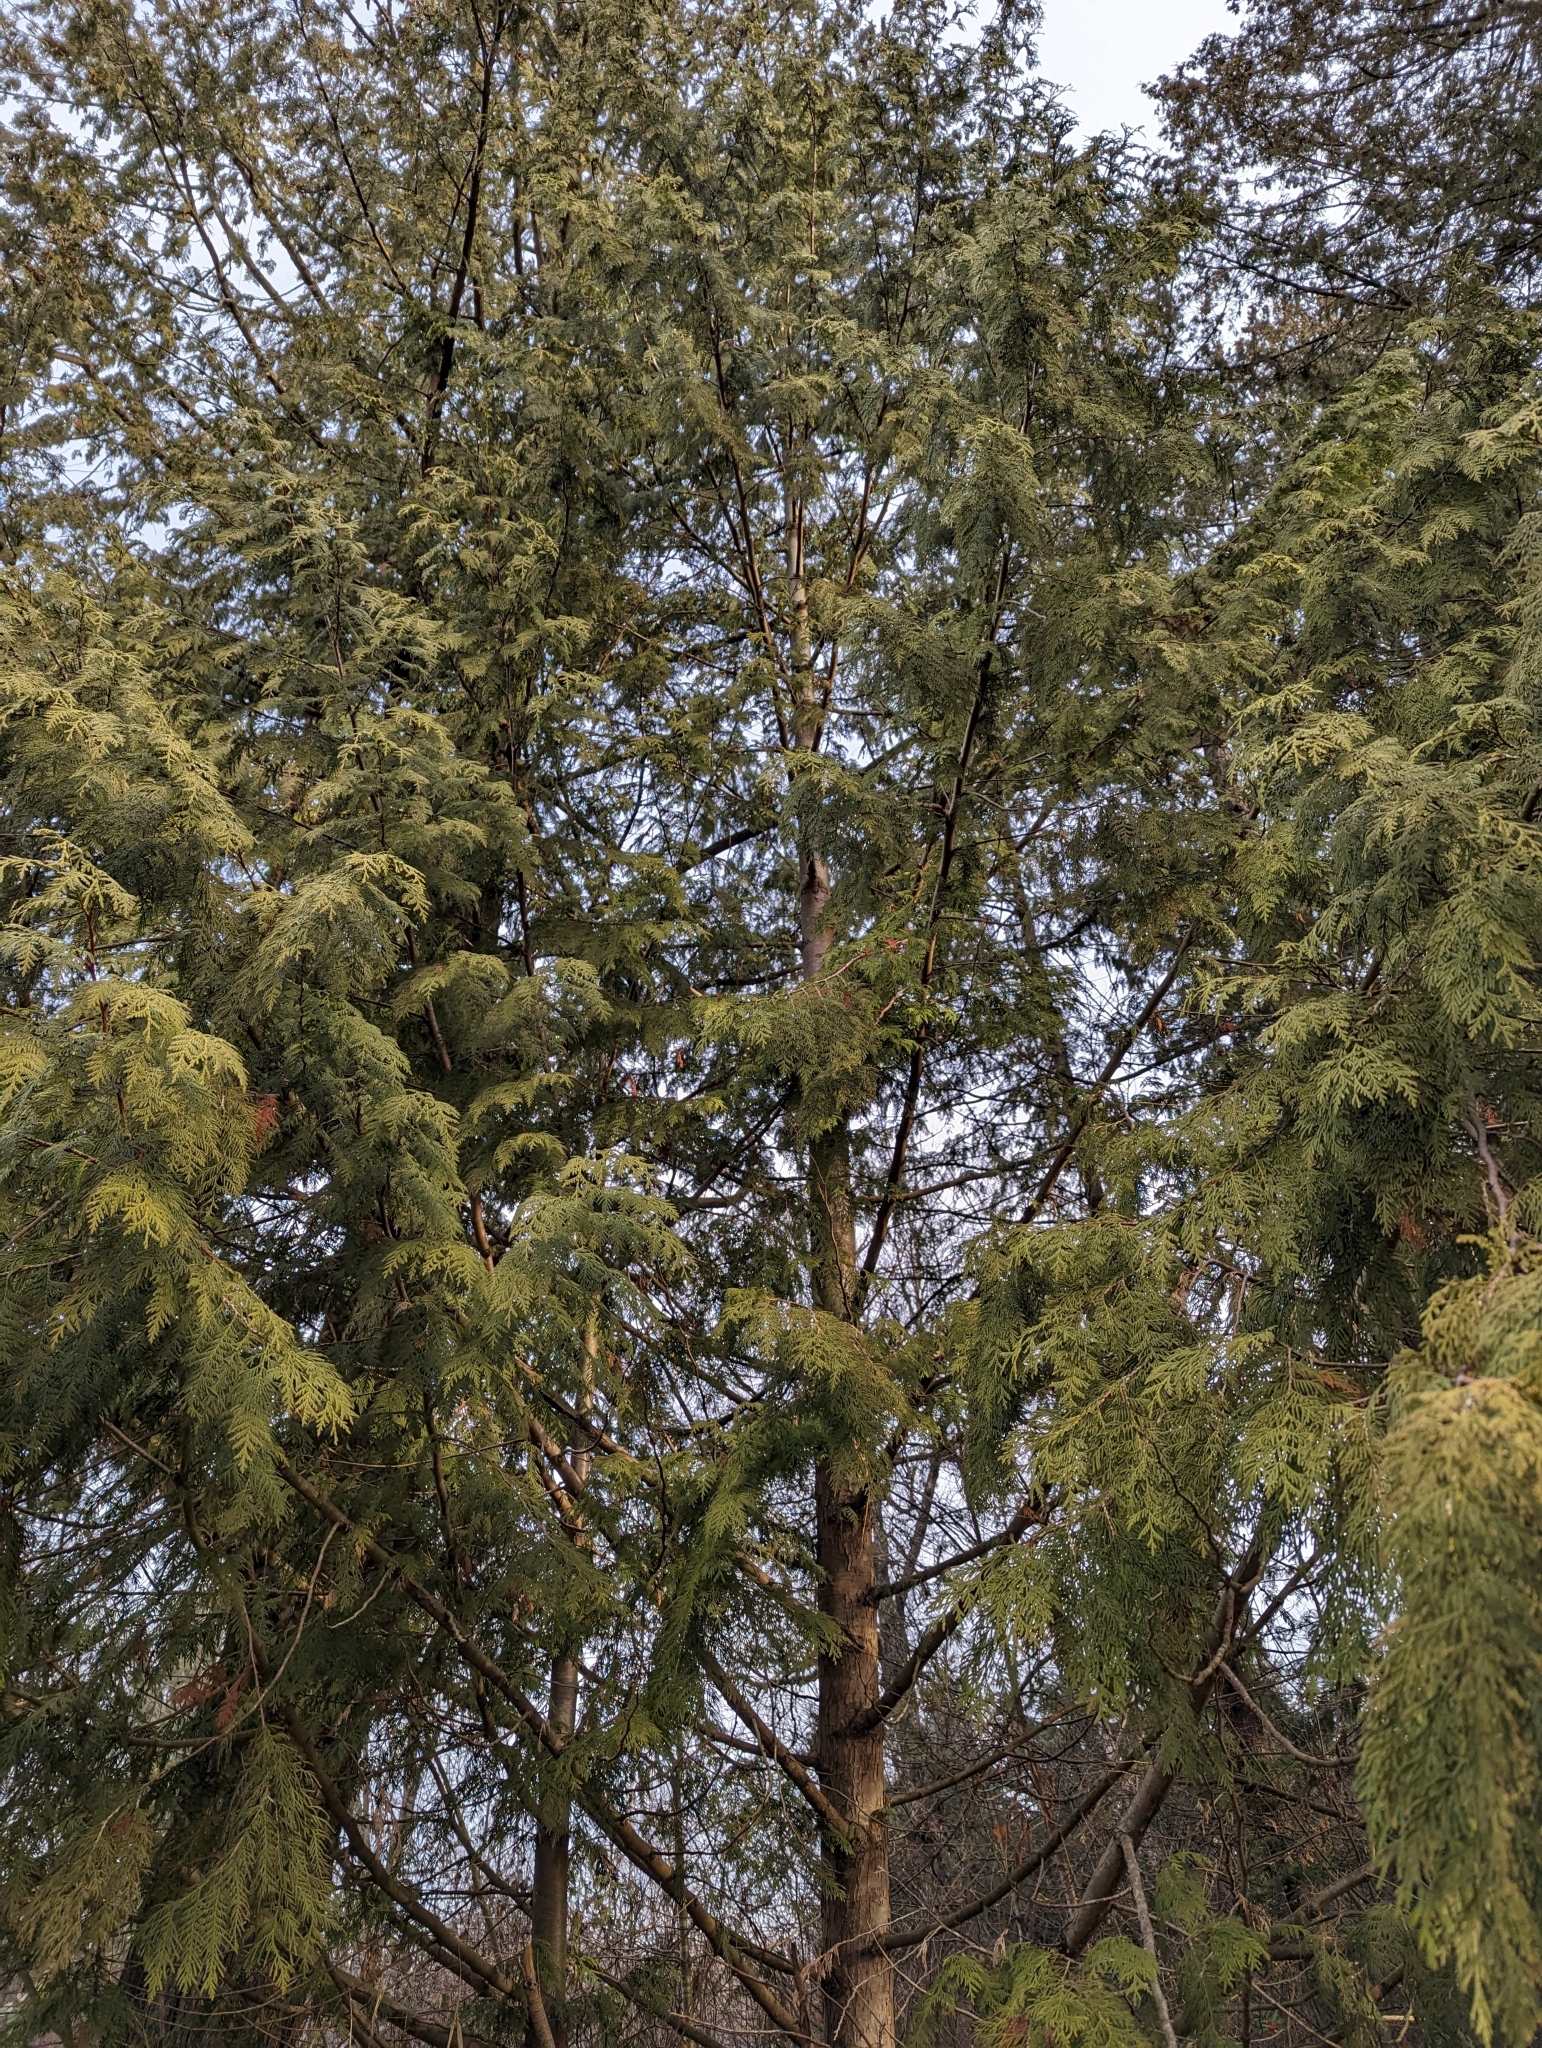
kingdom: Plantae
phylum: Tracheophyta
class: Pinopsida
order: Pinales
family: Cupressaceae
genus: Thuja
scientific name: Thuja plicata
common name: Western red-cedar
